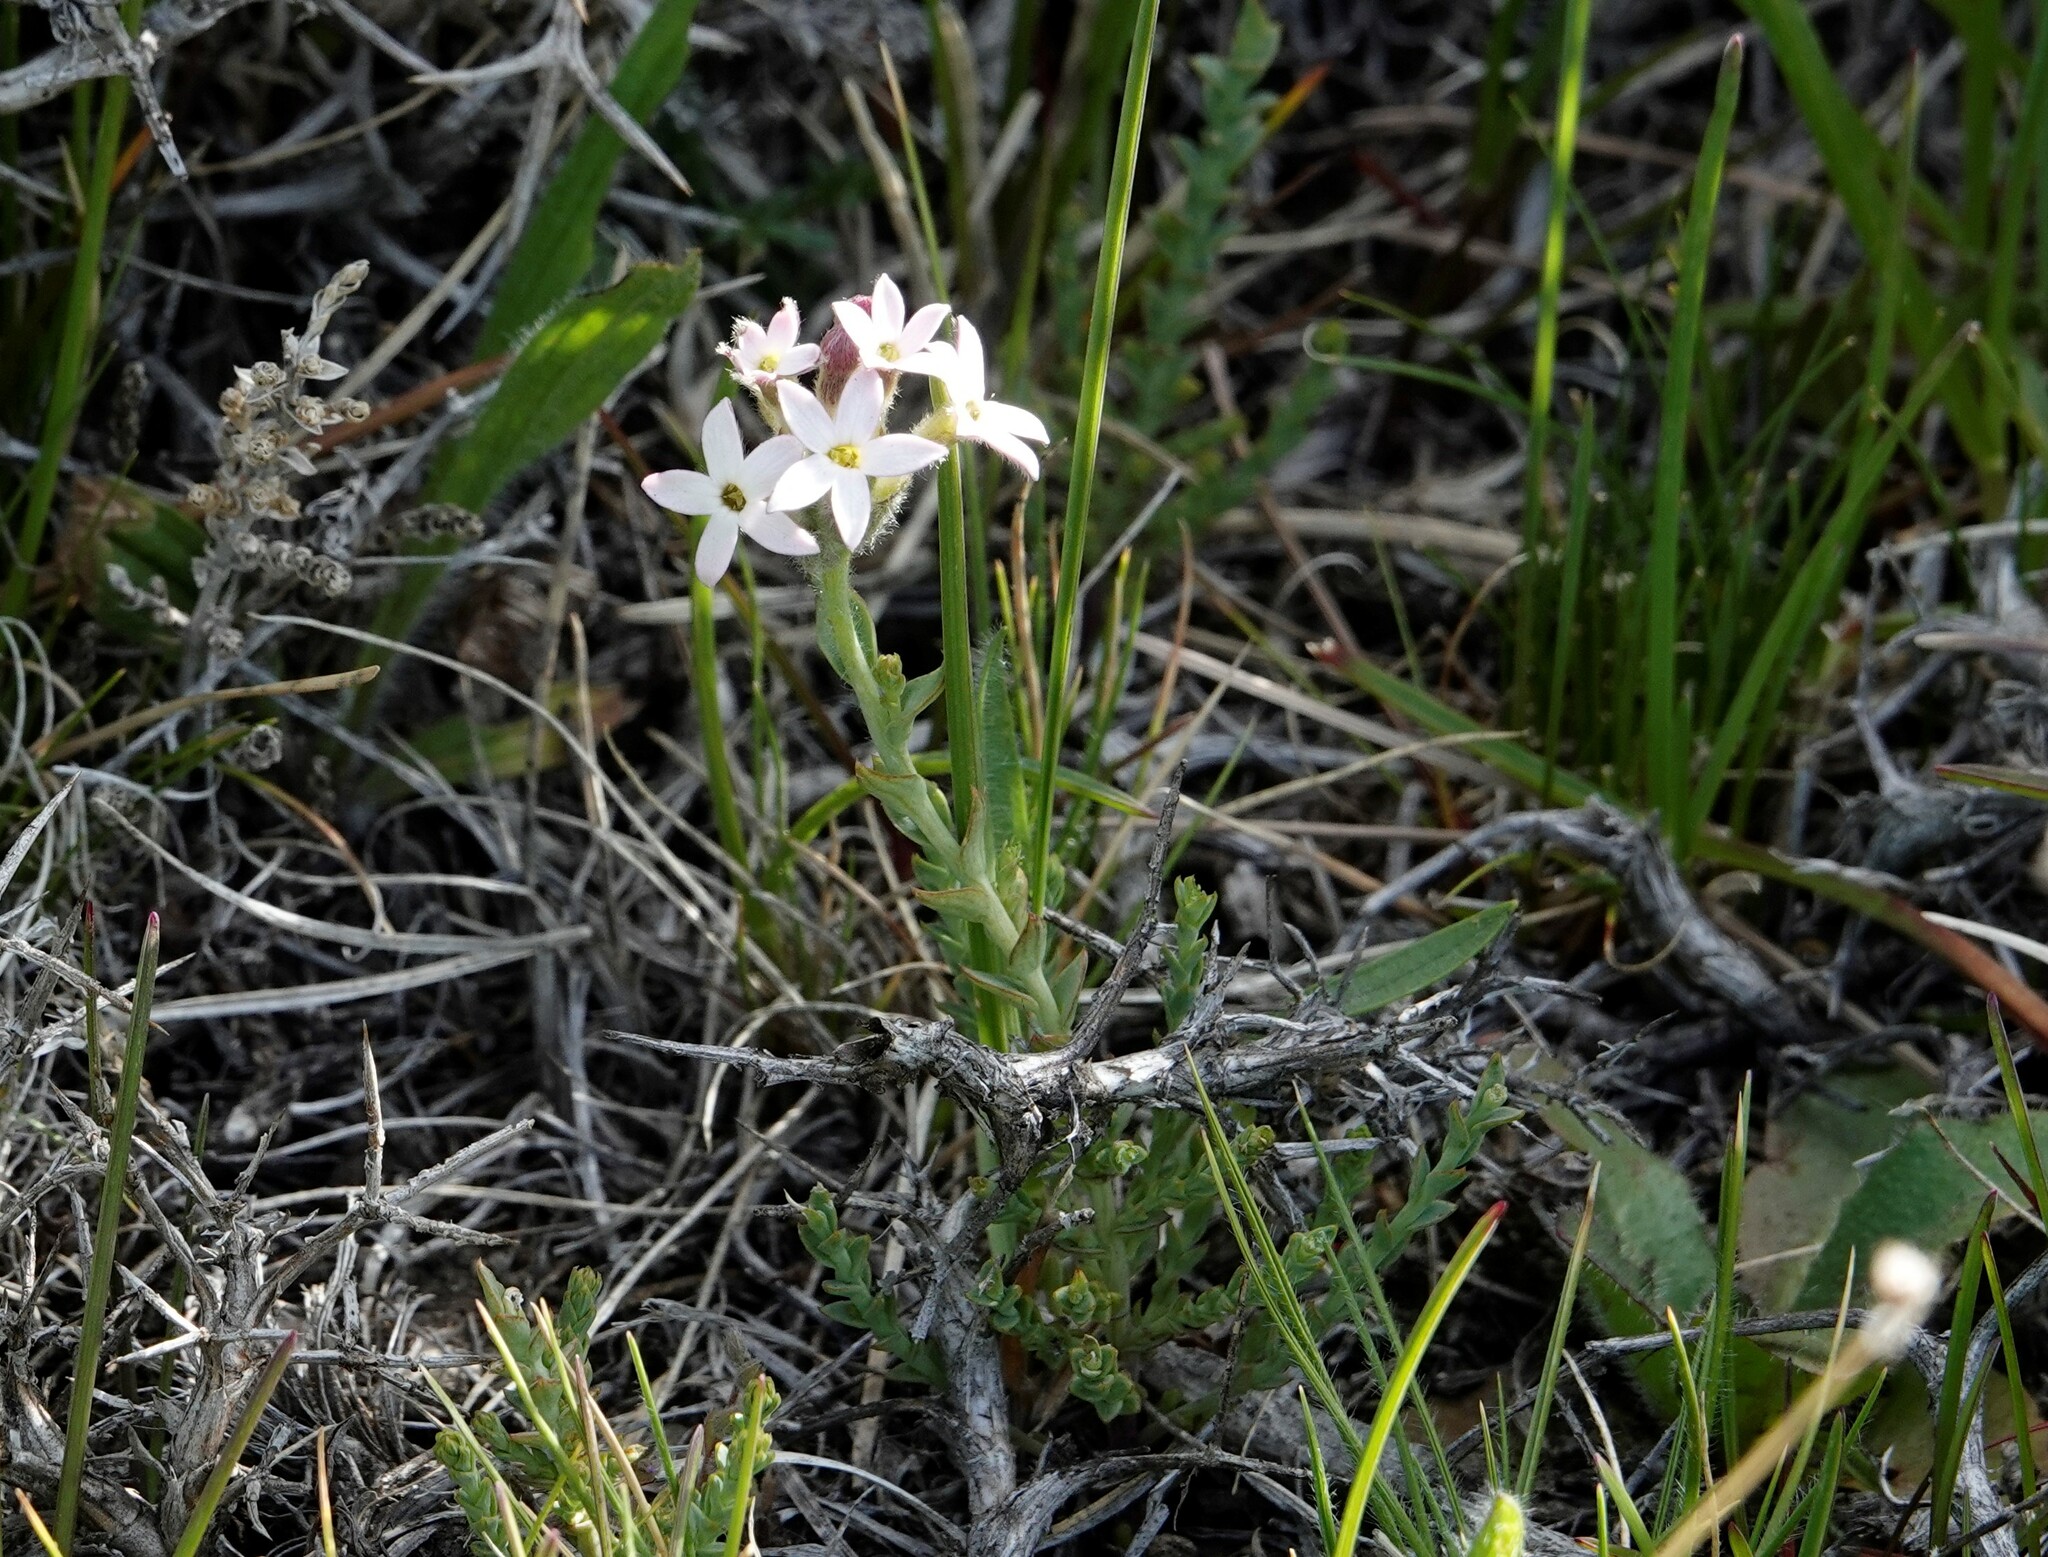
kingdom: Plantae
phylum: Tracheophyta
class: Magnoliopsida
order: Santalales
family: Schoepfiaceae
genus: Arjona
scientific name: Arjona patagonica
